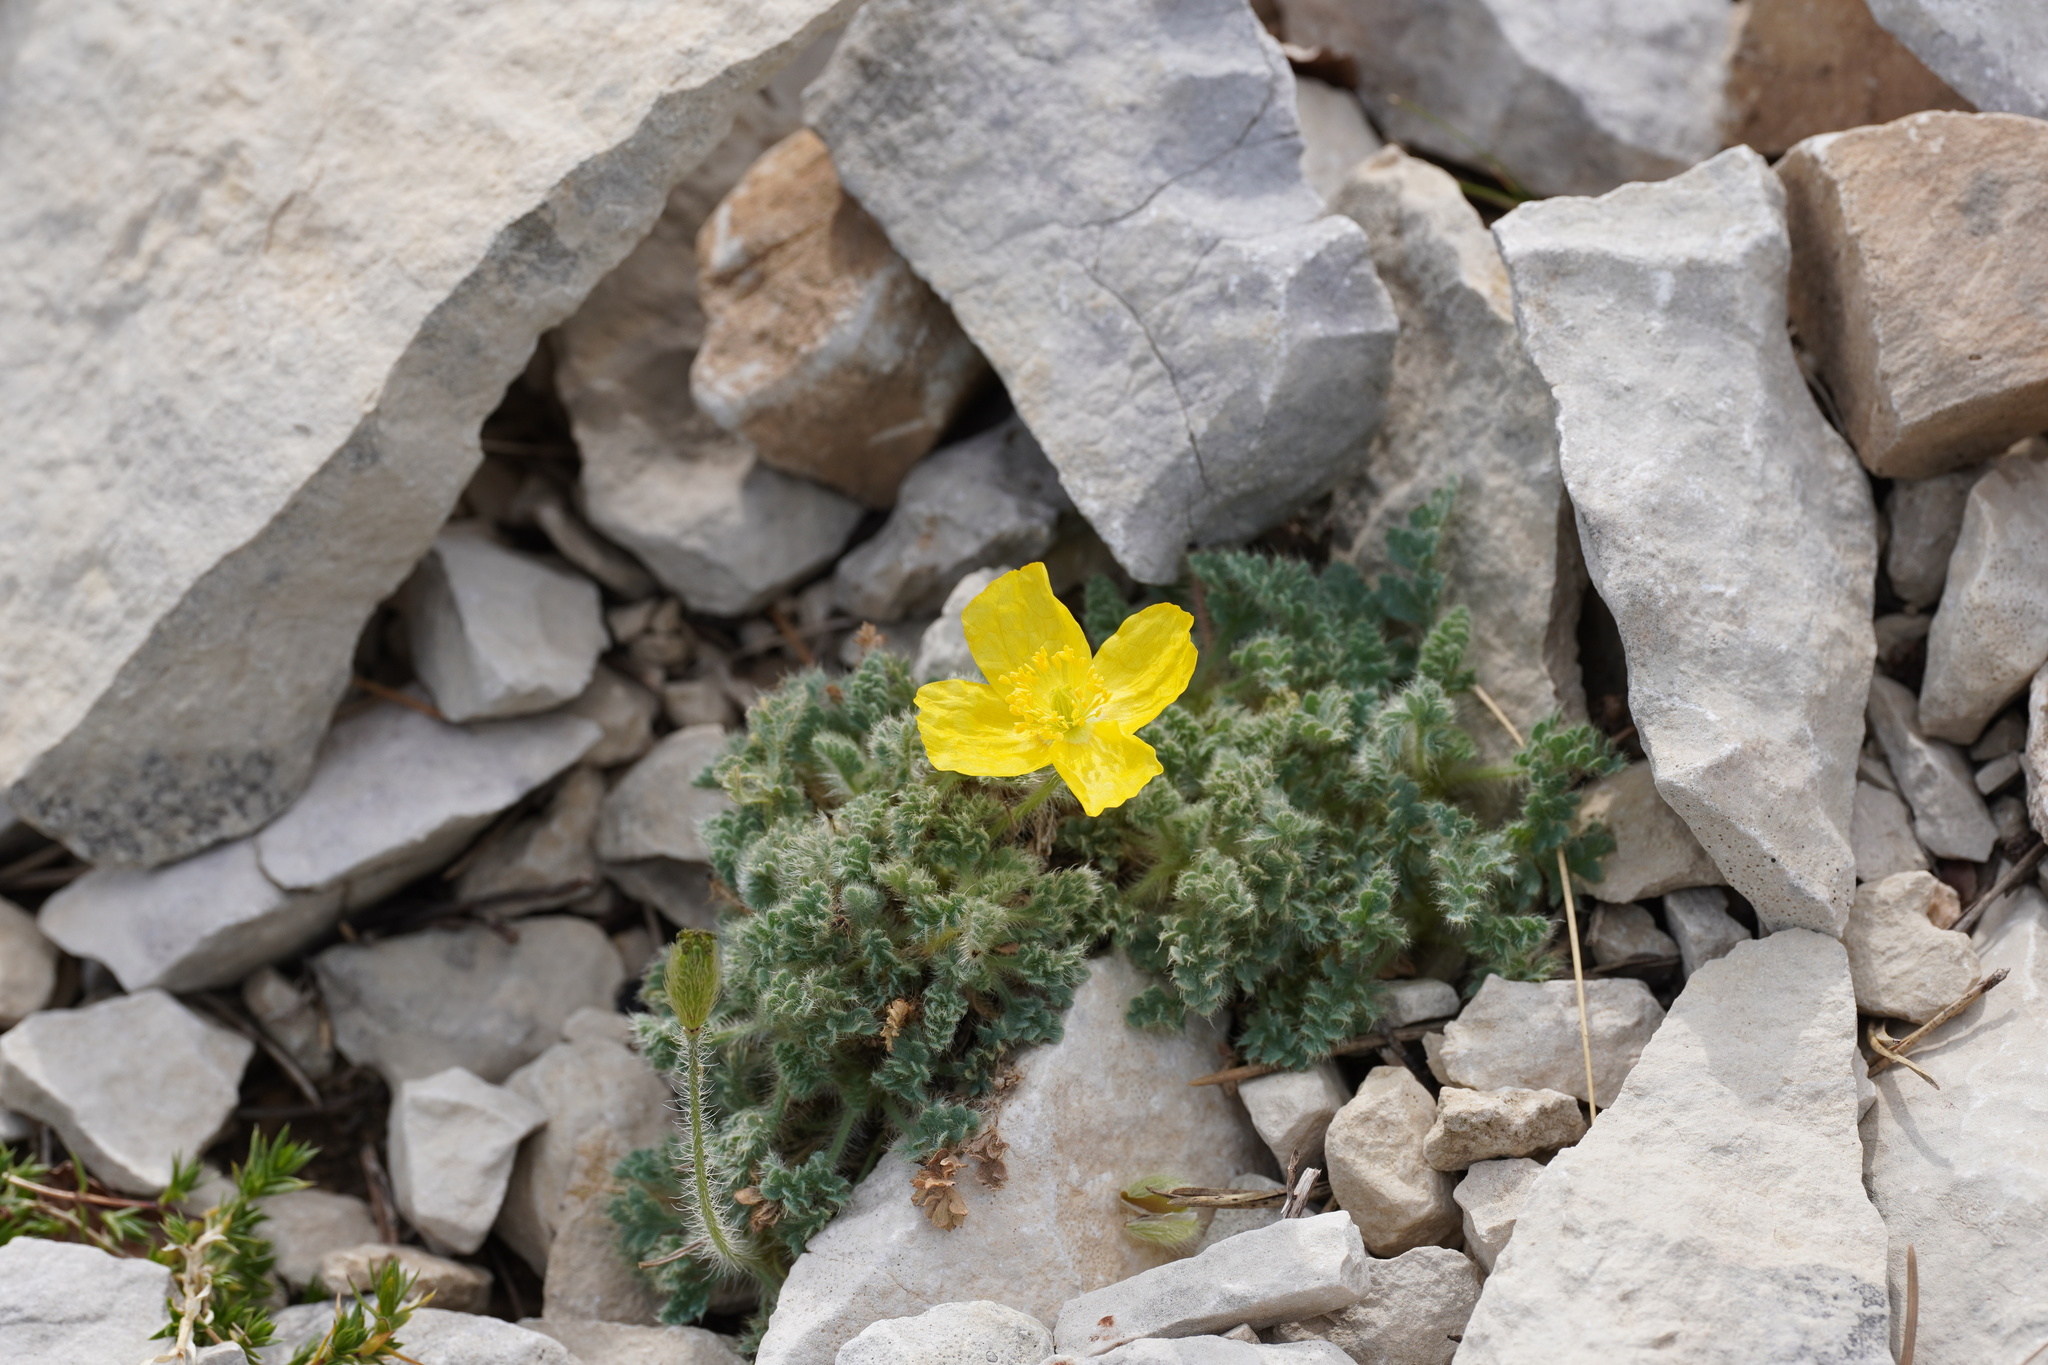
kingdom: Plantae
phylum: Tracheophyta
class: Magnoliopsida
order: Ranunculales
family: Papaveraceae
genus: Papaver
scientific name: Papaver alpinum
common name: Austrian poppy
